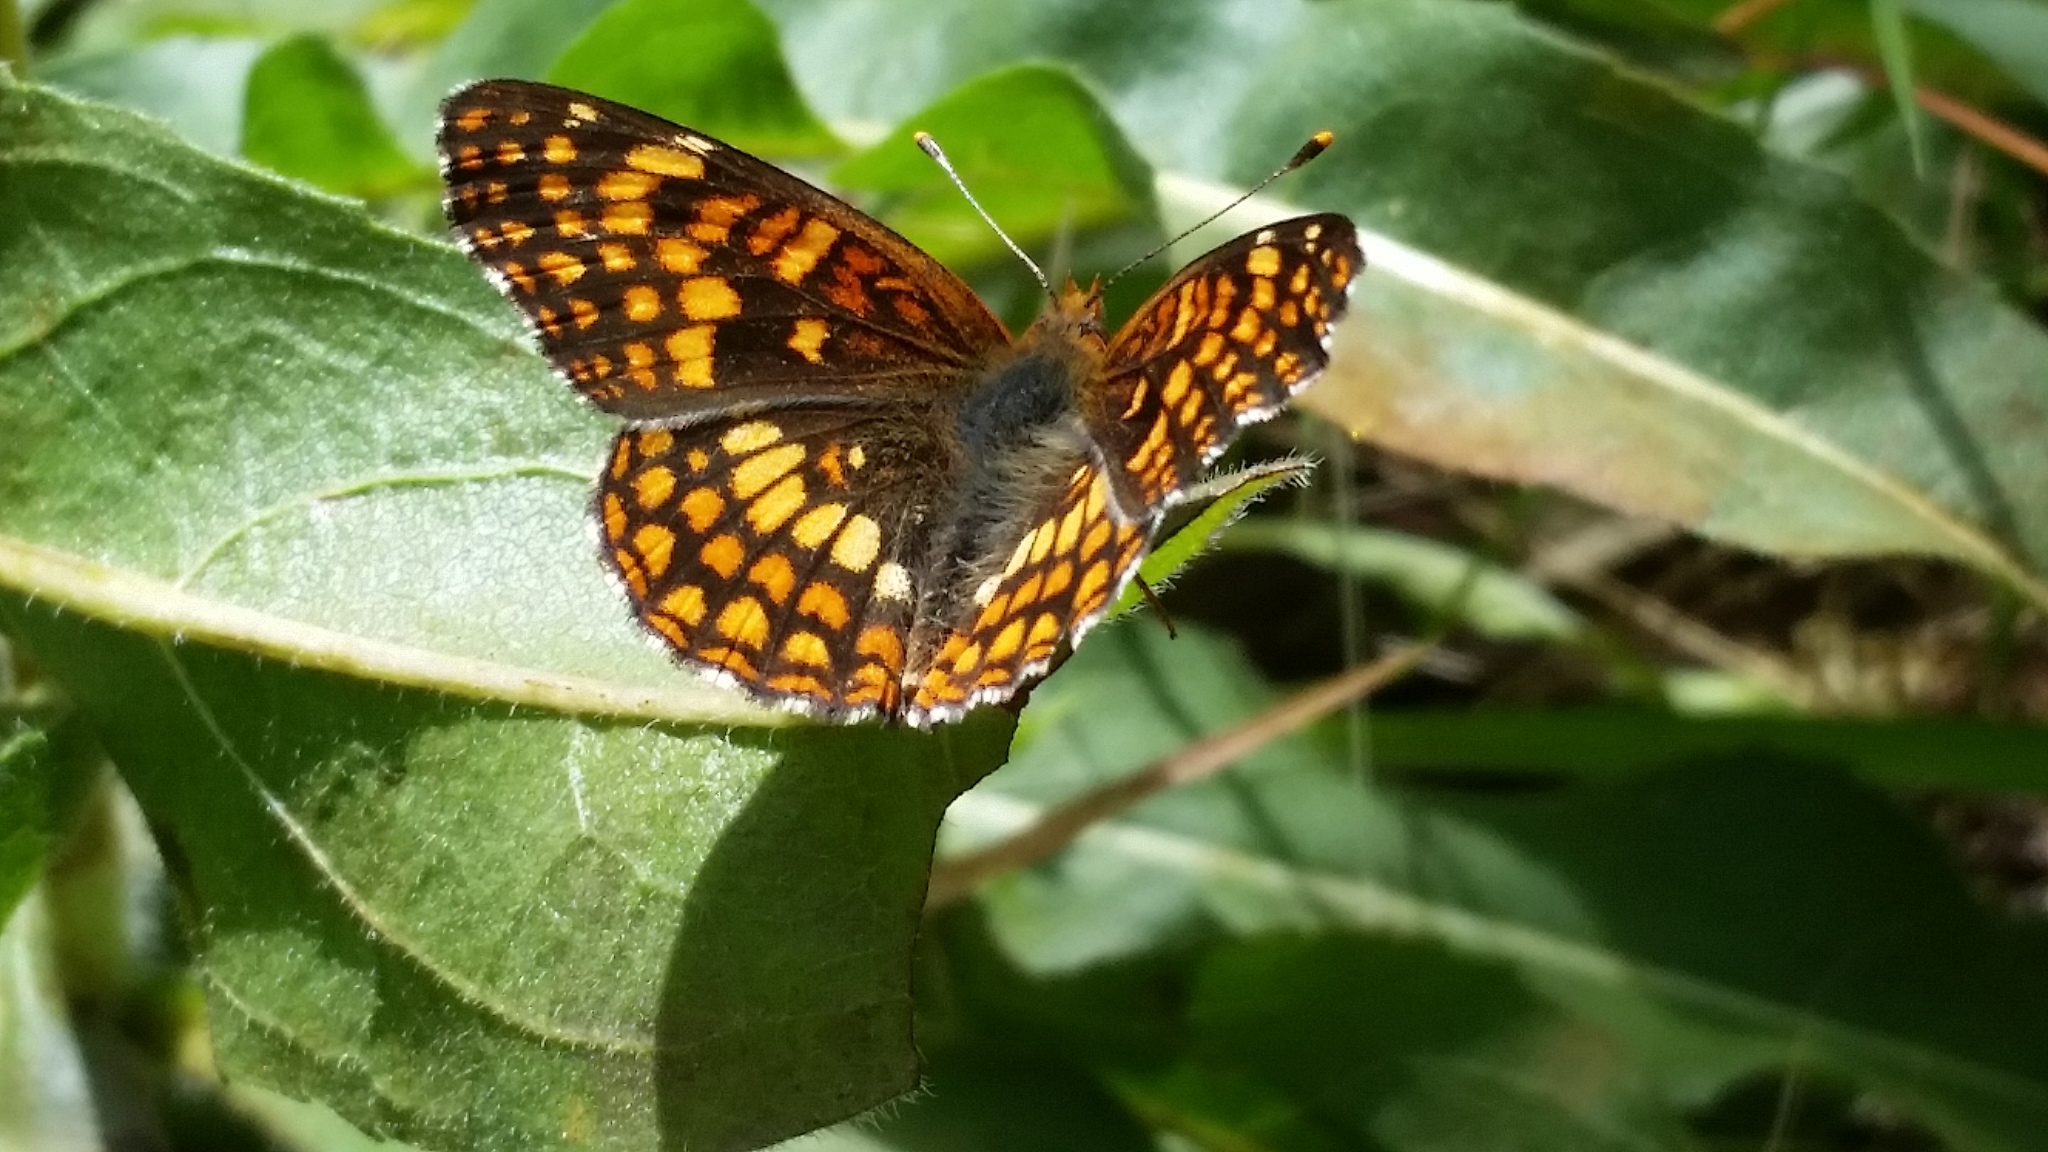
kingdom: Animalia
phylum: Arthropoda
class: Insecta
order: Lepidoptera
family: Nymphalidae
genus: Chlosyne
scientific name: Chlosyne palla
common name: Northern checkerspot
